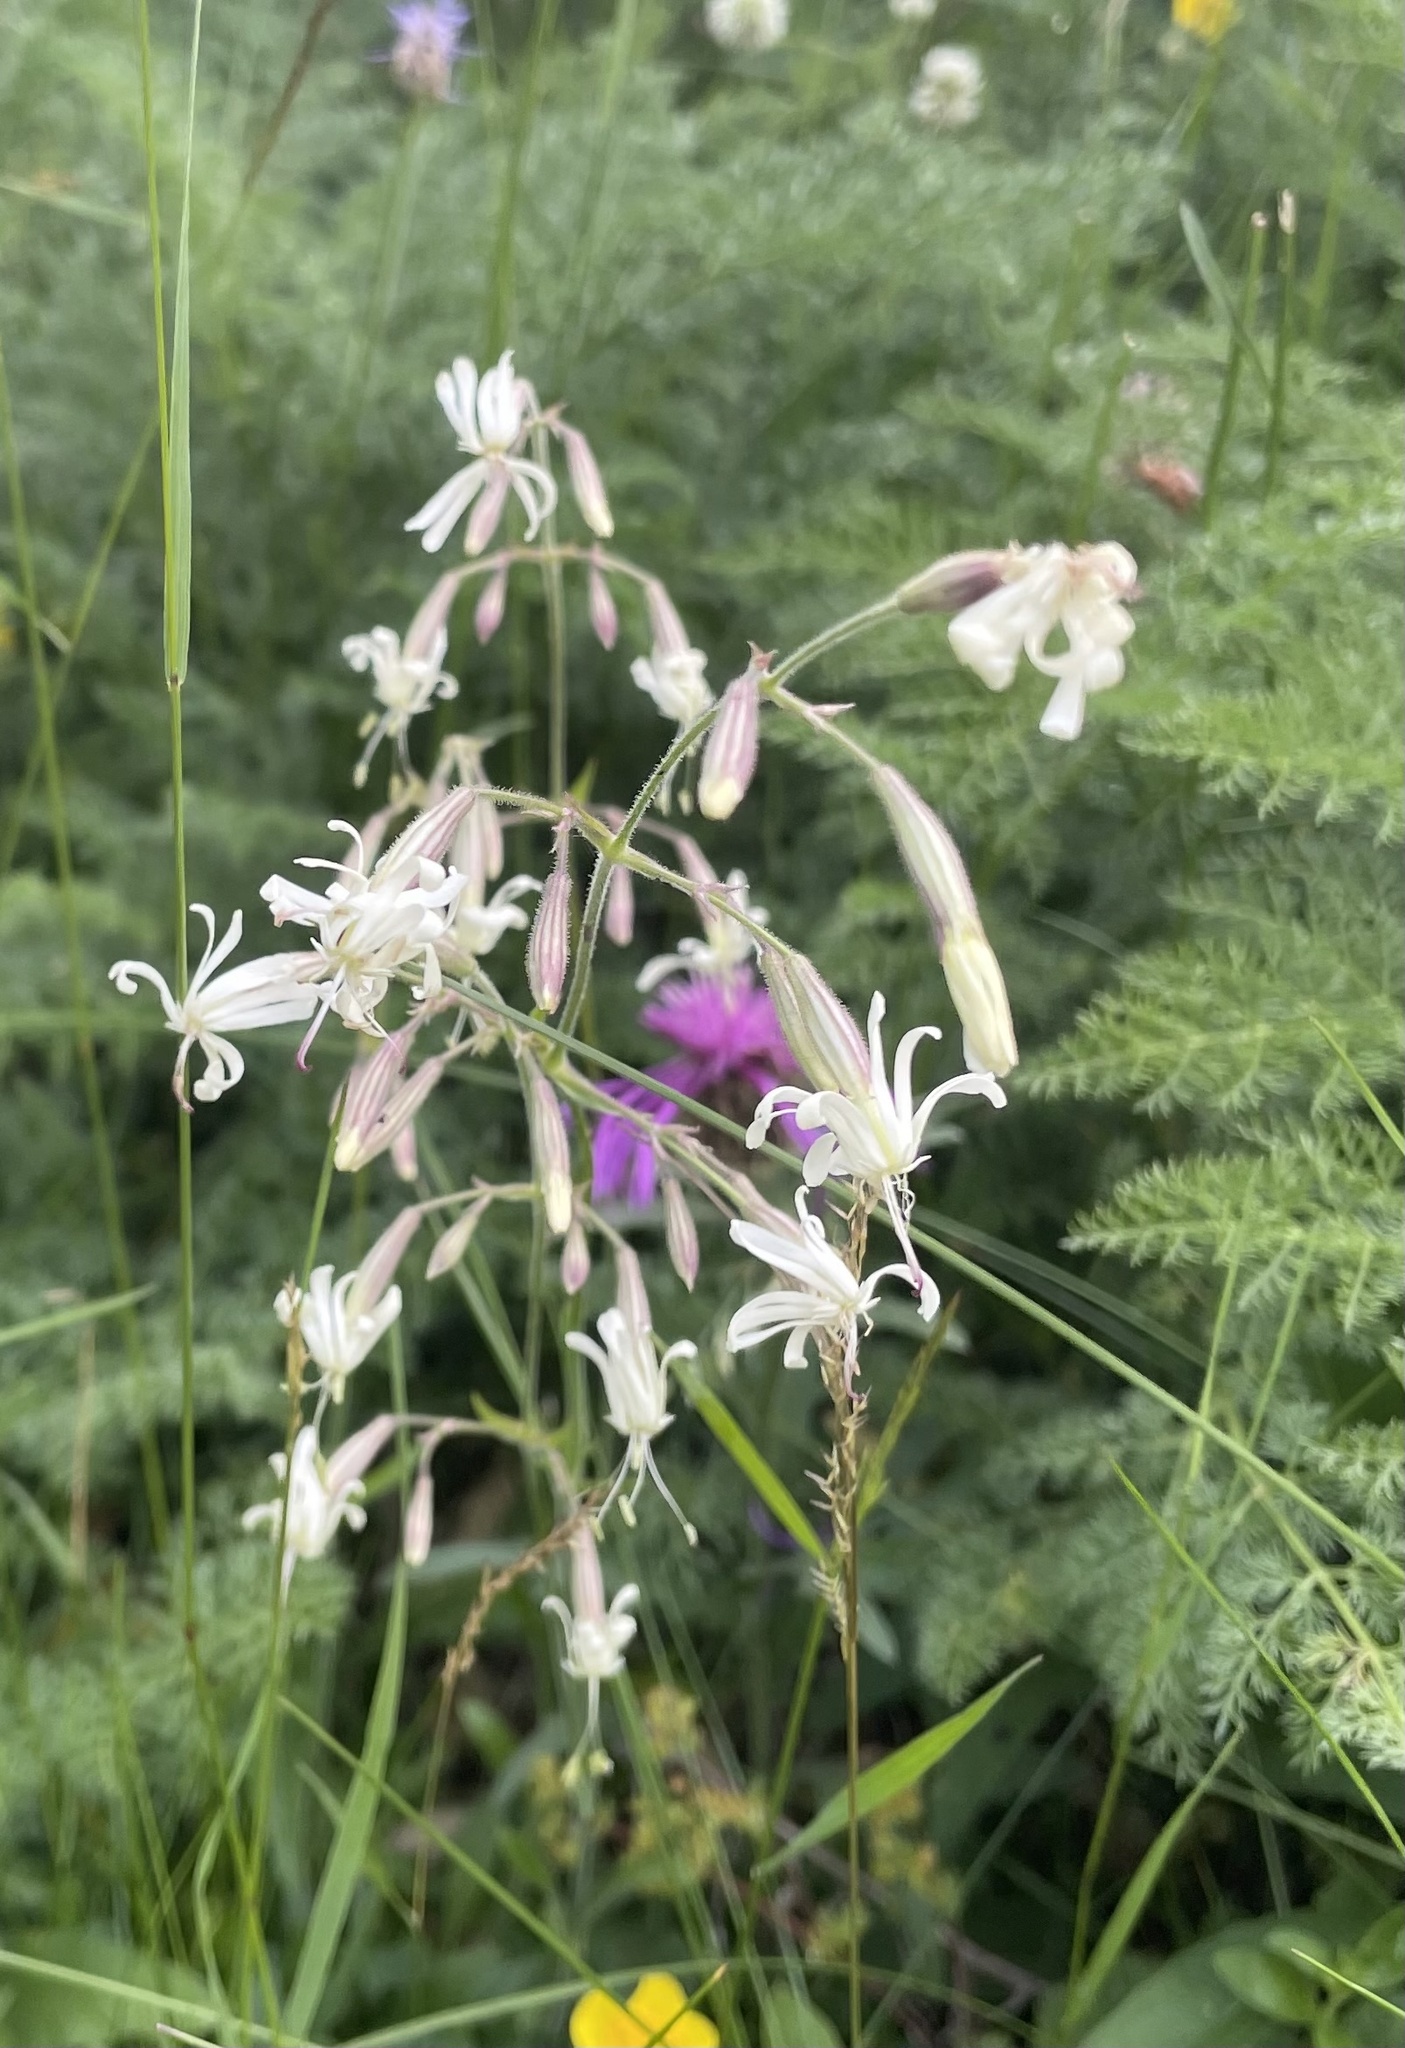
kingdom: Plantae
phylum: Tracheophyta
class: Magnoliopsida
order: Caryophyllales
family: Caryophyllaceae
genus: Silene
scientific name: Silene nutans
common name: Nottingham catchfly
